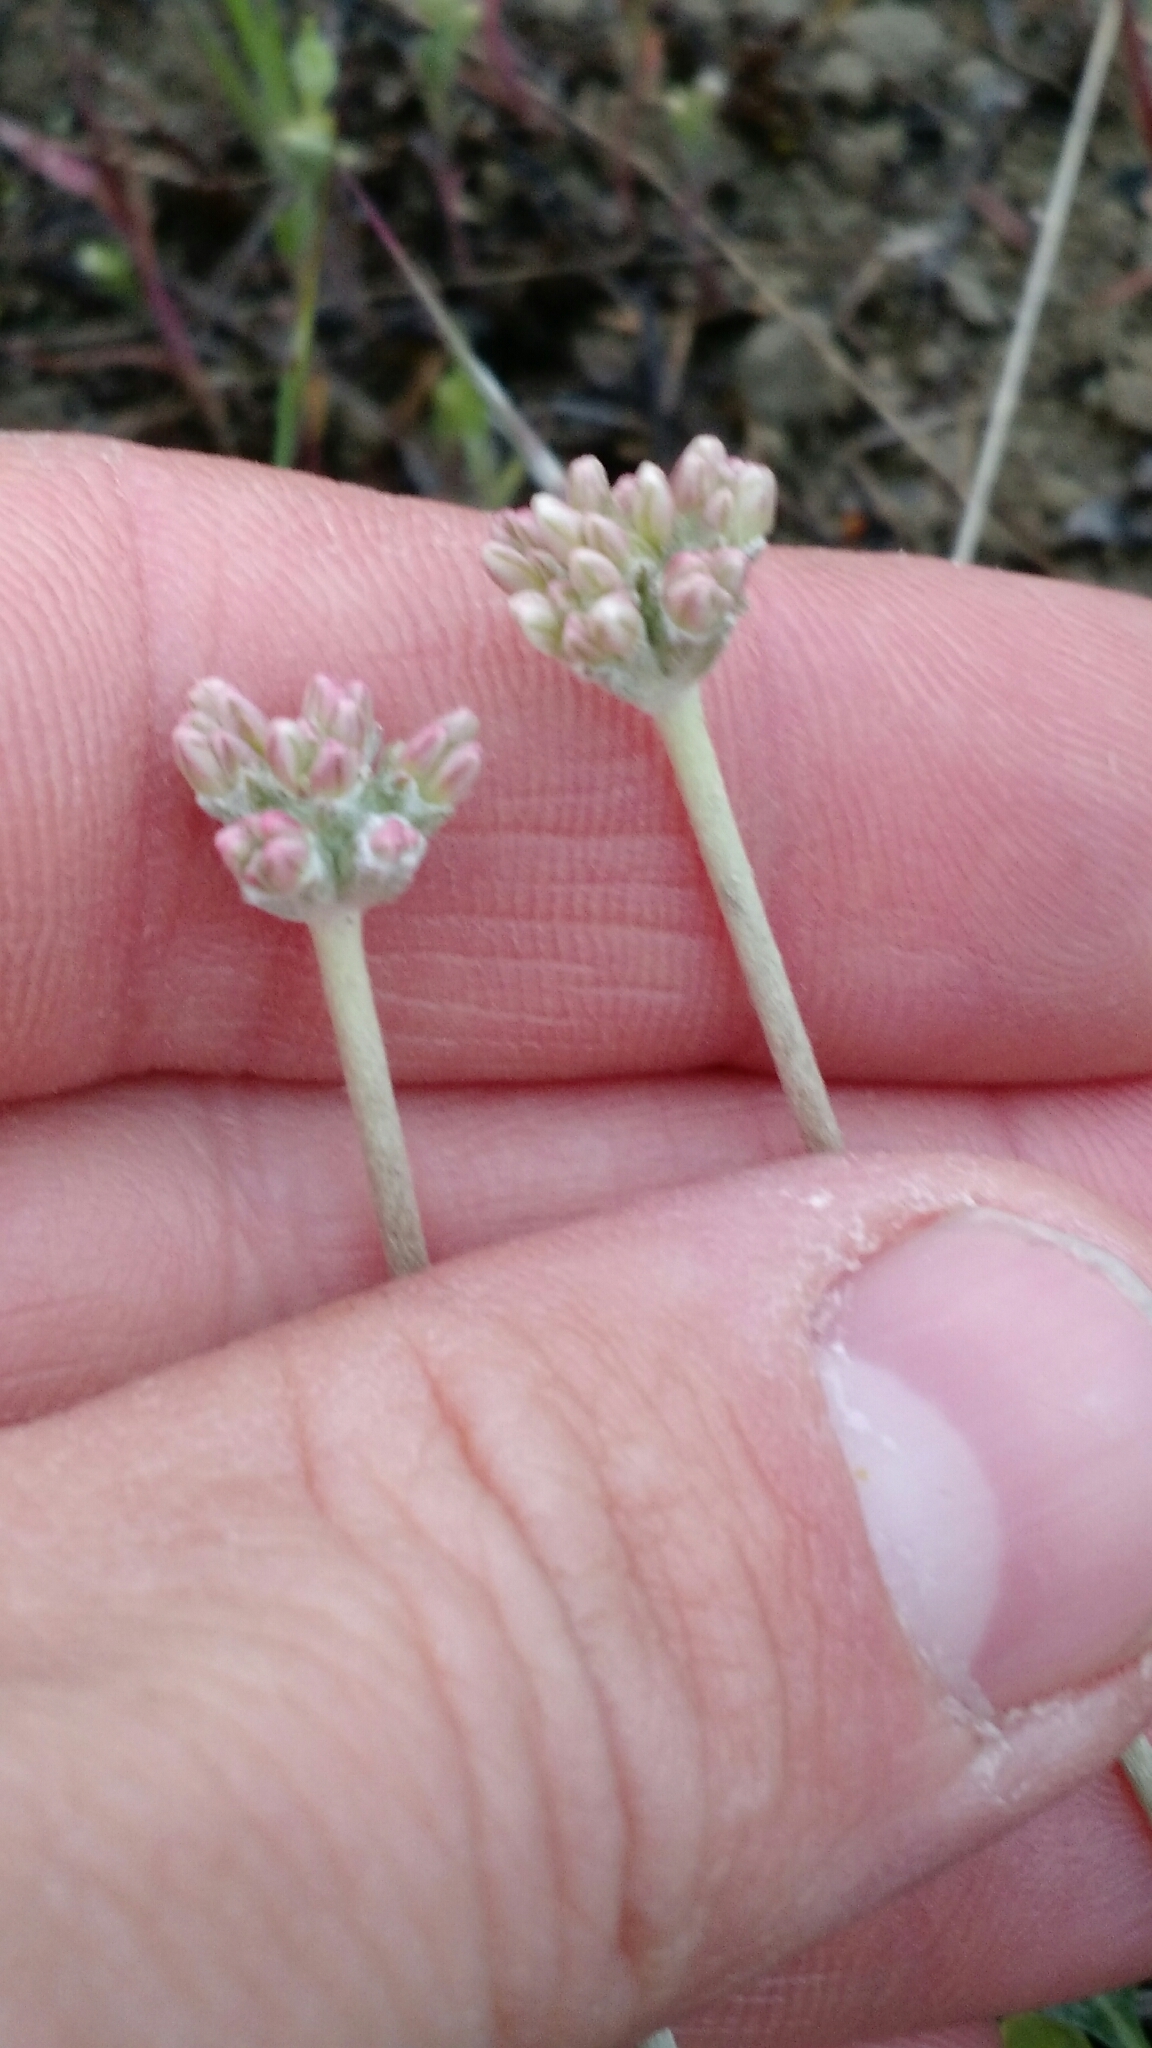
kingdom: Plantae
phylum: Tracheophyta
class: Magnoliopsida
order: Caryophyllales
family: Polygonaceae
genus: Eriogonum
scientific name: Eriogonum ovalifolium
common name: Cushion buckwheat
